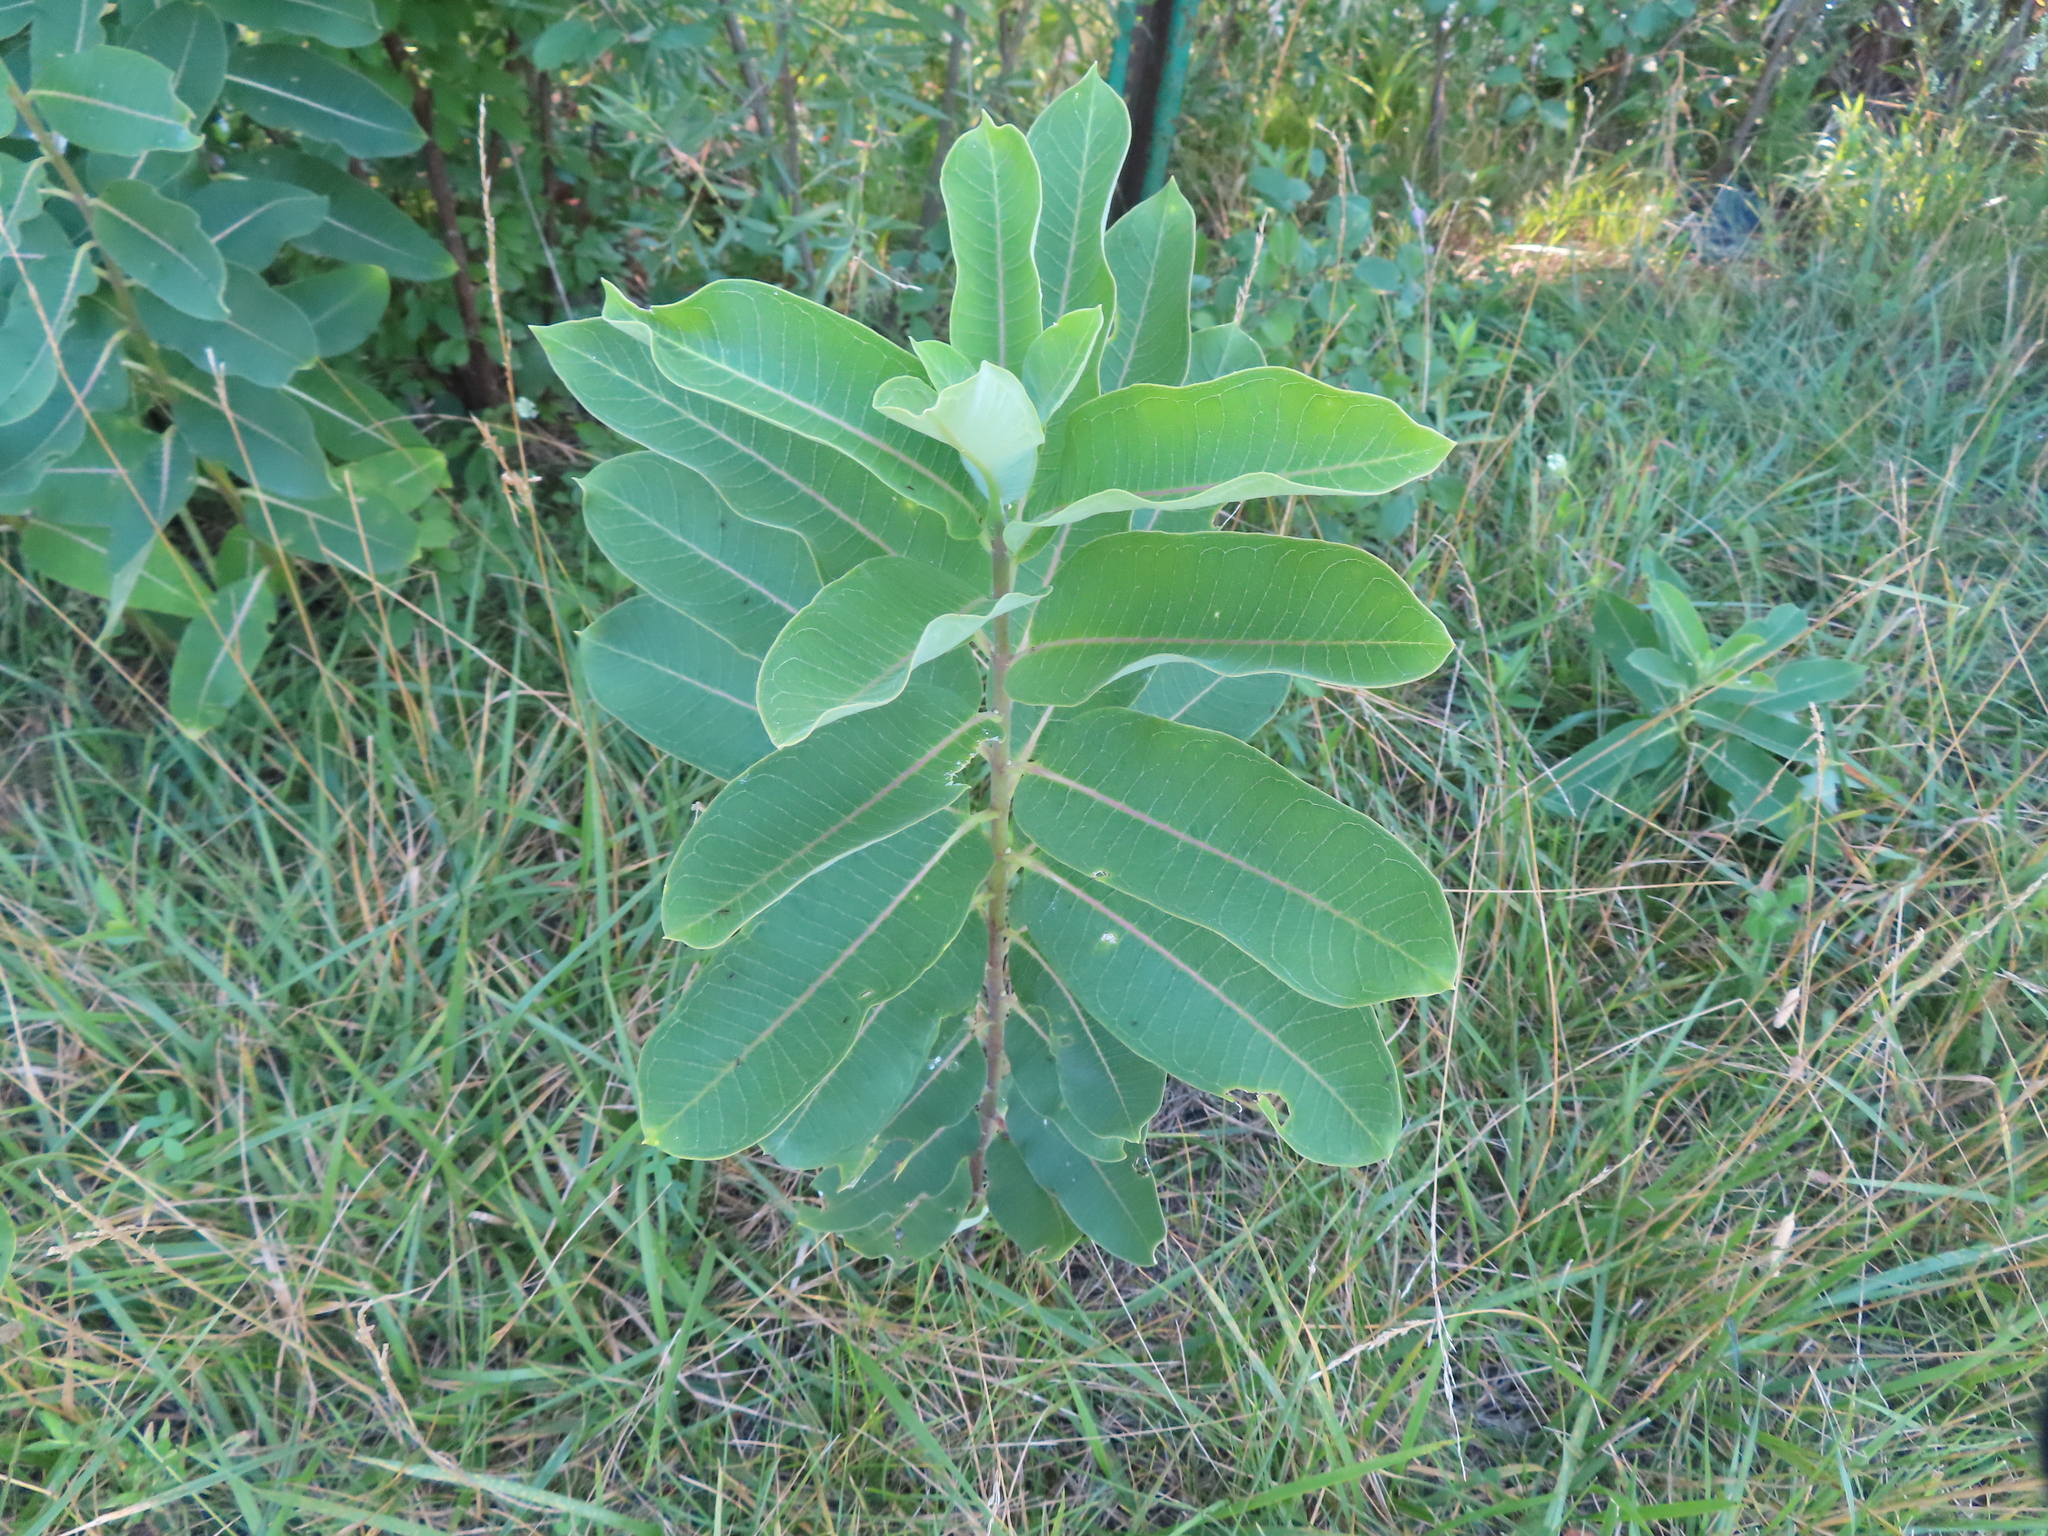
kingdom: Plantae
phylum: Tracheophyta
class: Magnoliopsida
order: Gentianales
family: Apocynaceae
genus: Asclepias
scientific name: Asclepias syriaca
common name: Common milkweed
